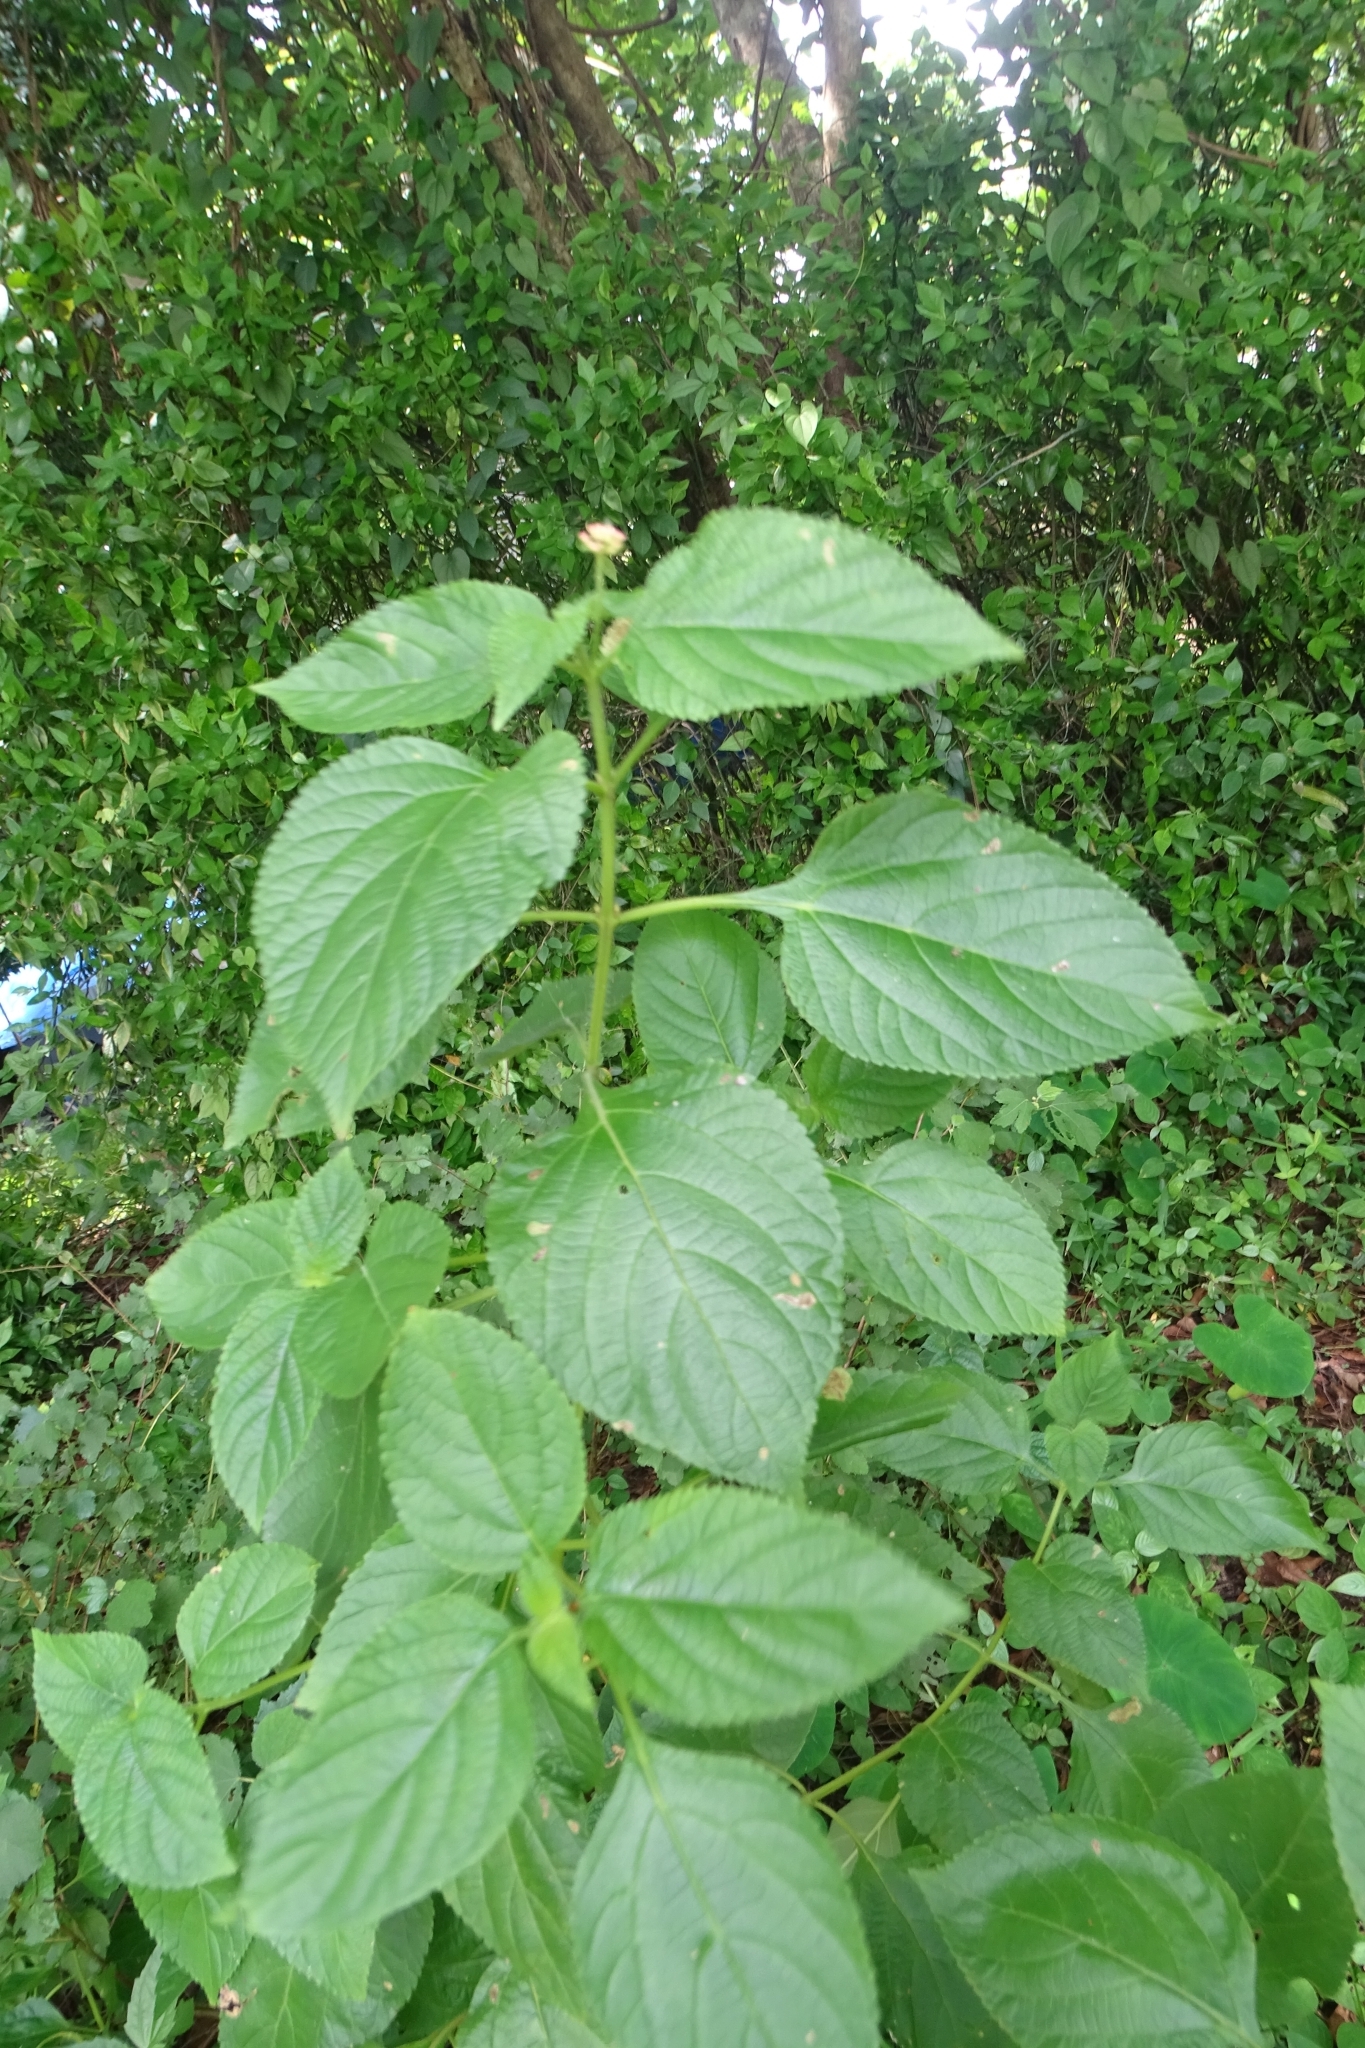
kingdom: Plantae
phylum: Tracheophyta
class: Magnoliopsida
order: Lamiales
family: Verbenaceae
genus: Lantana
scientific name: Lantana camara
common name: Lantana
